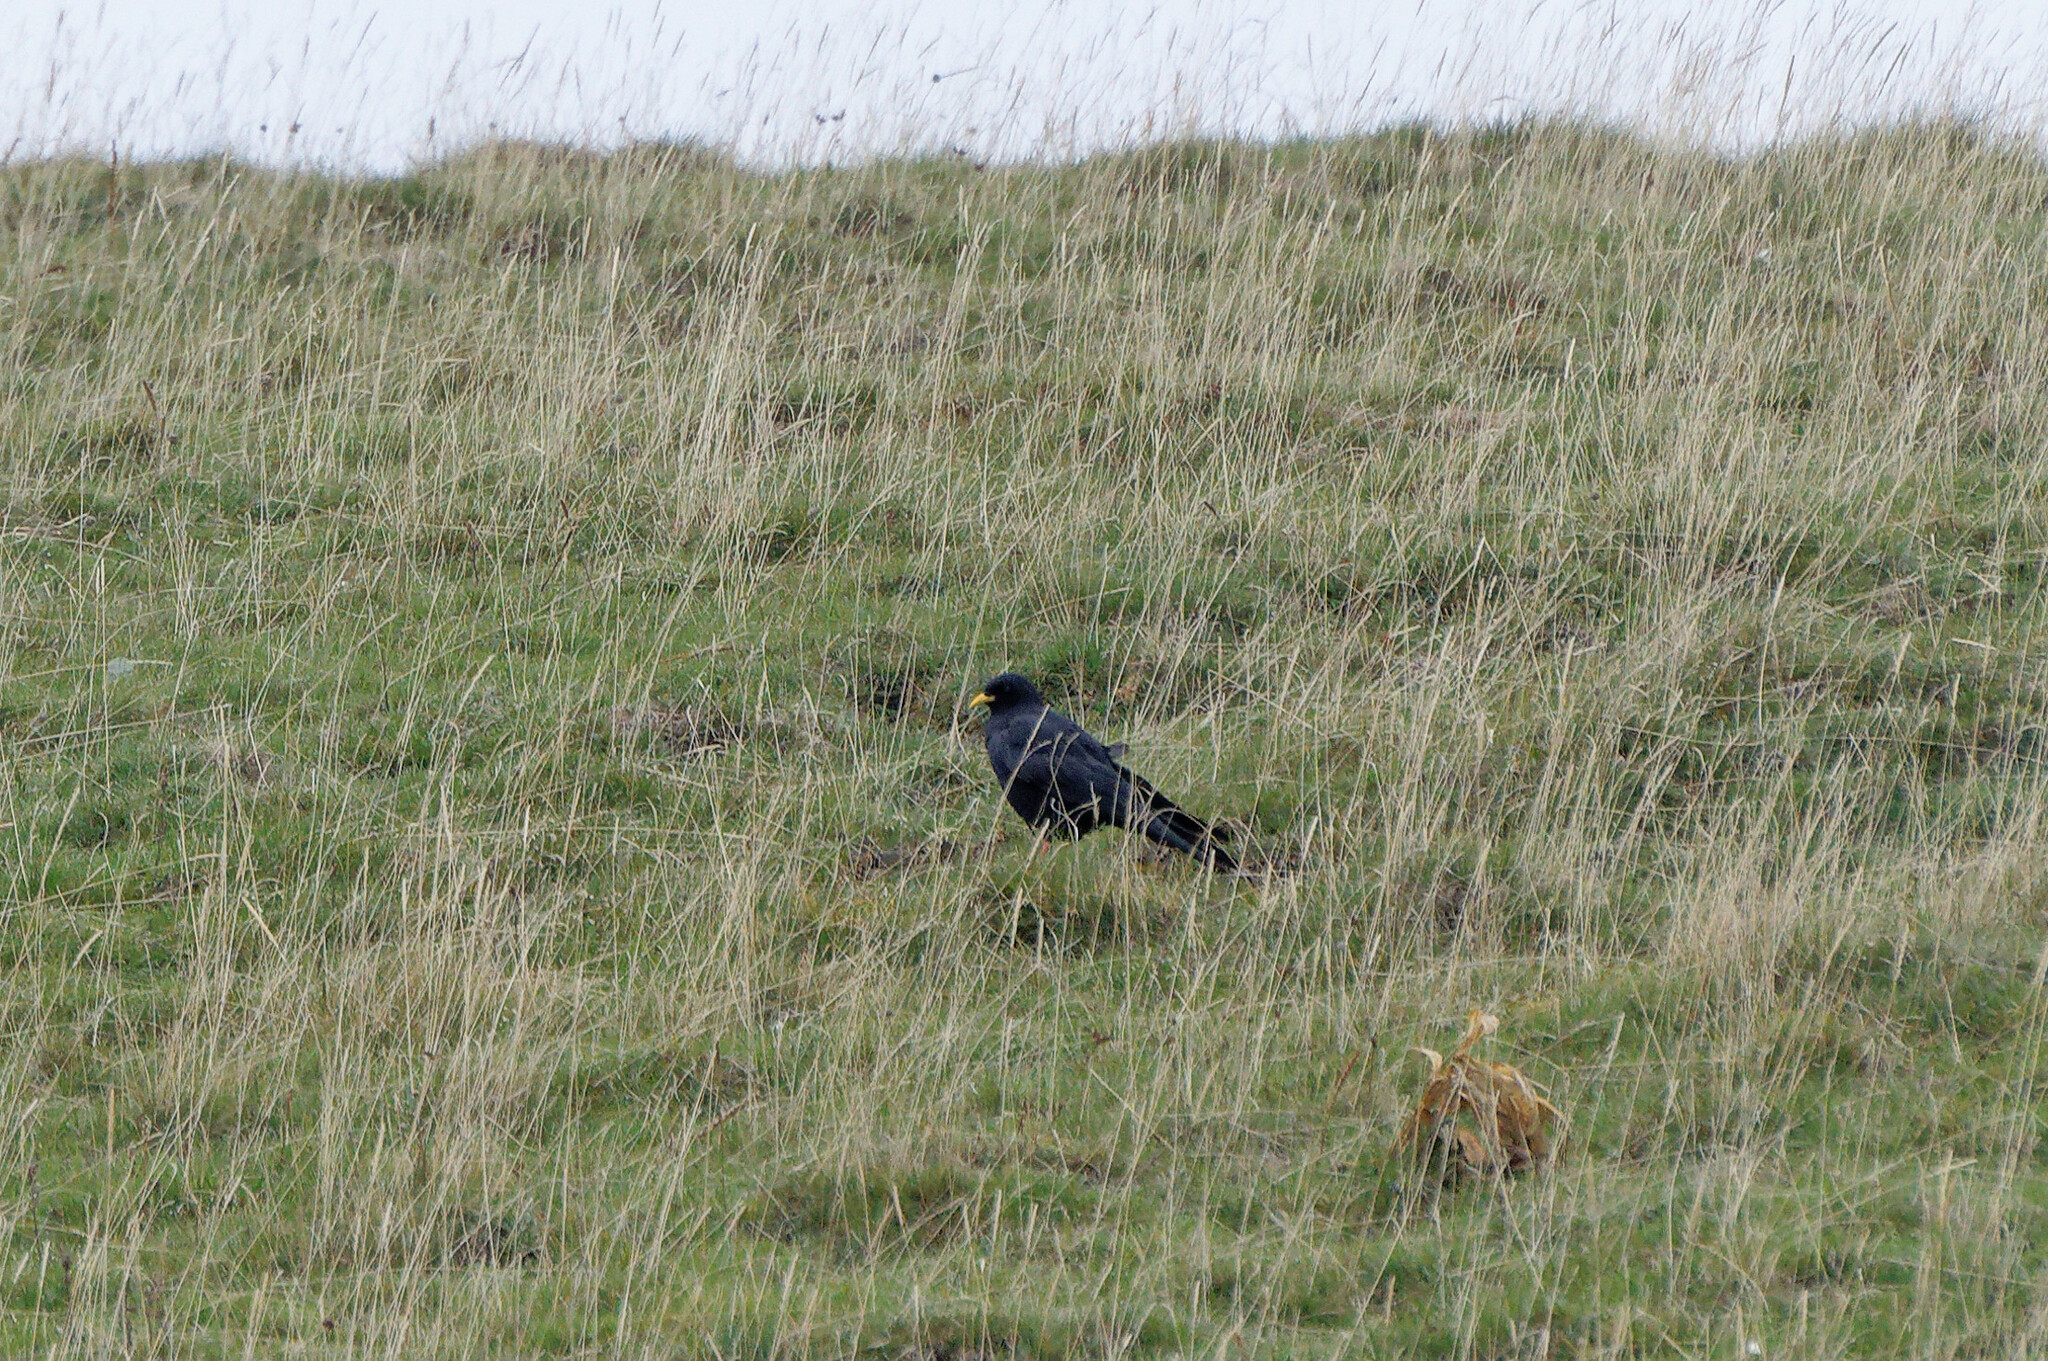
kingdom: Animalia
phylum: Chordata
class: Aves
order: Passeriformes
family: Corvidae
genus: Pyrrhocorax
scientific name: Pyrrhocorax graculus
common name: Alpine chough
